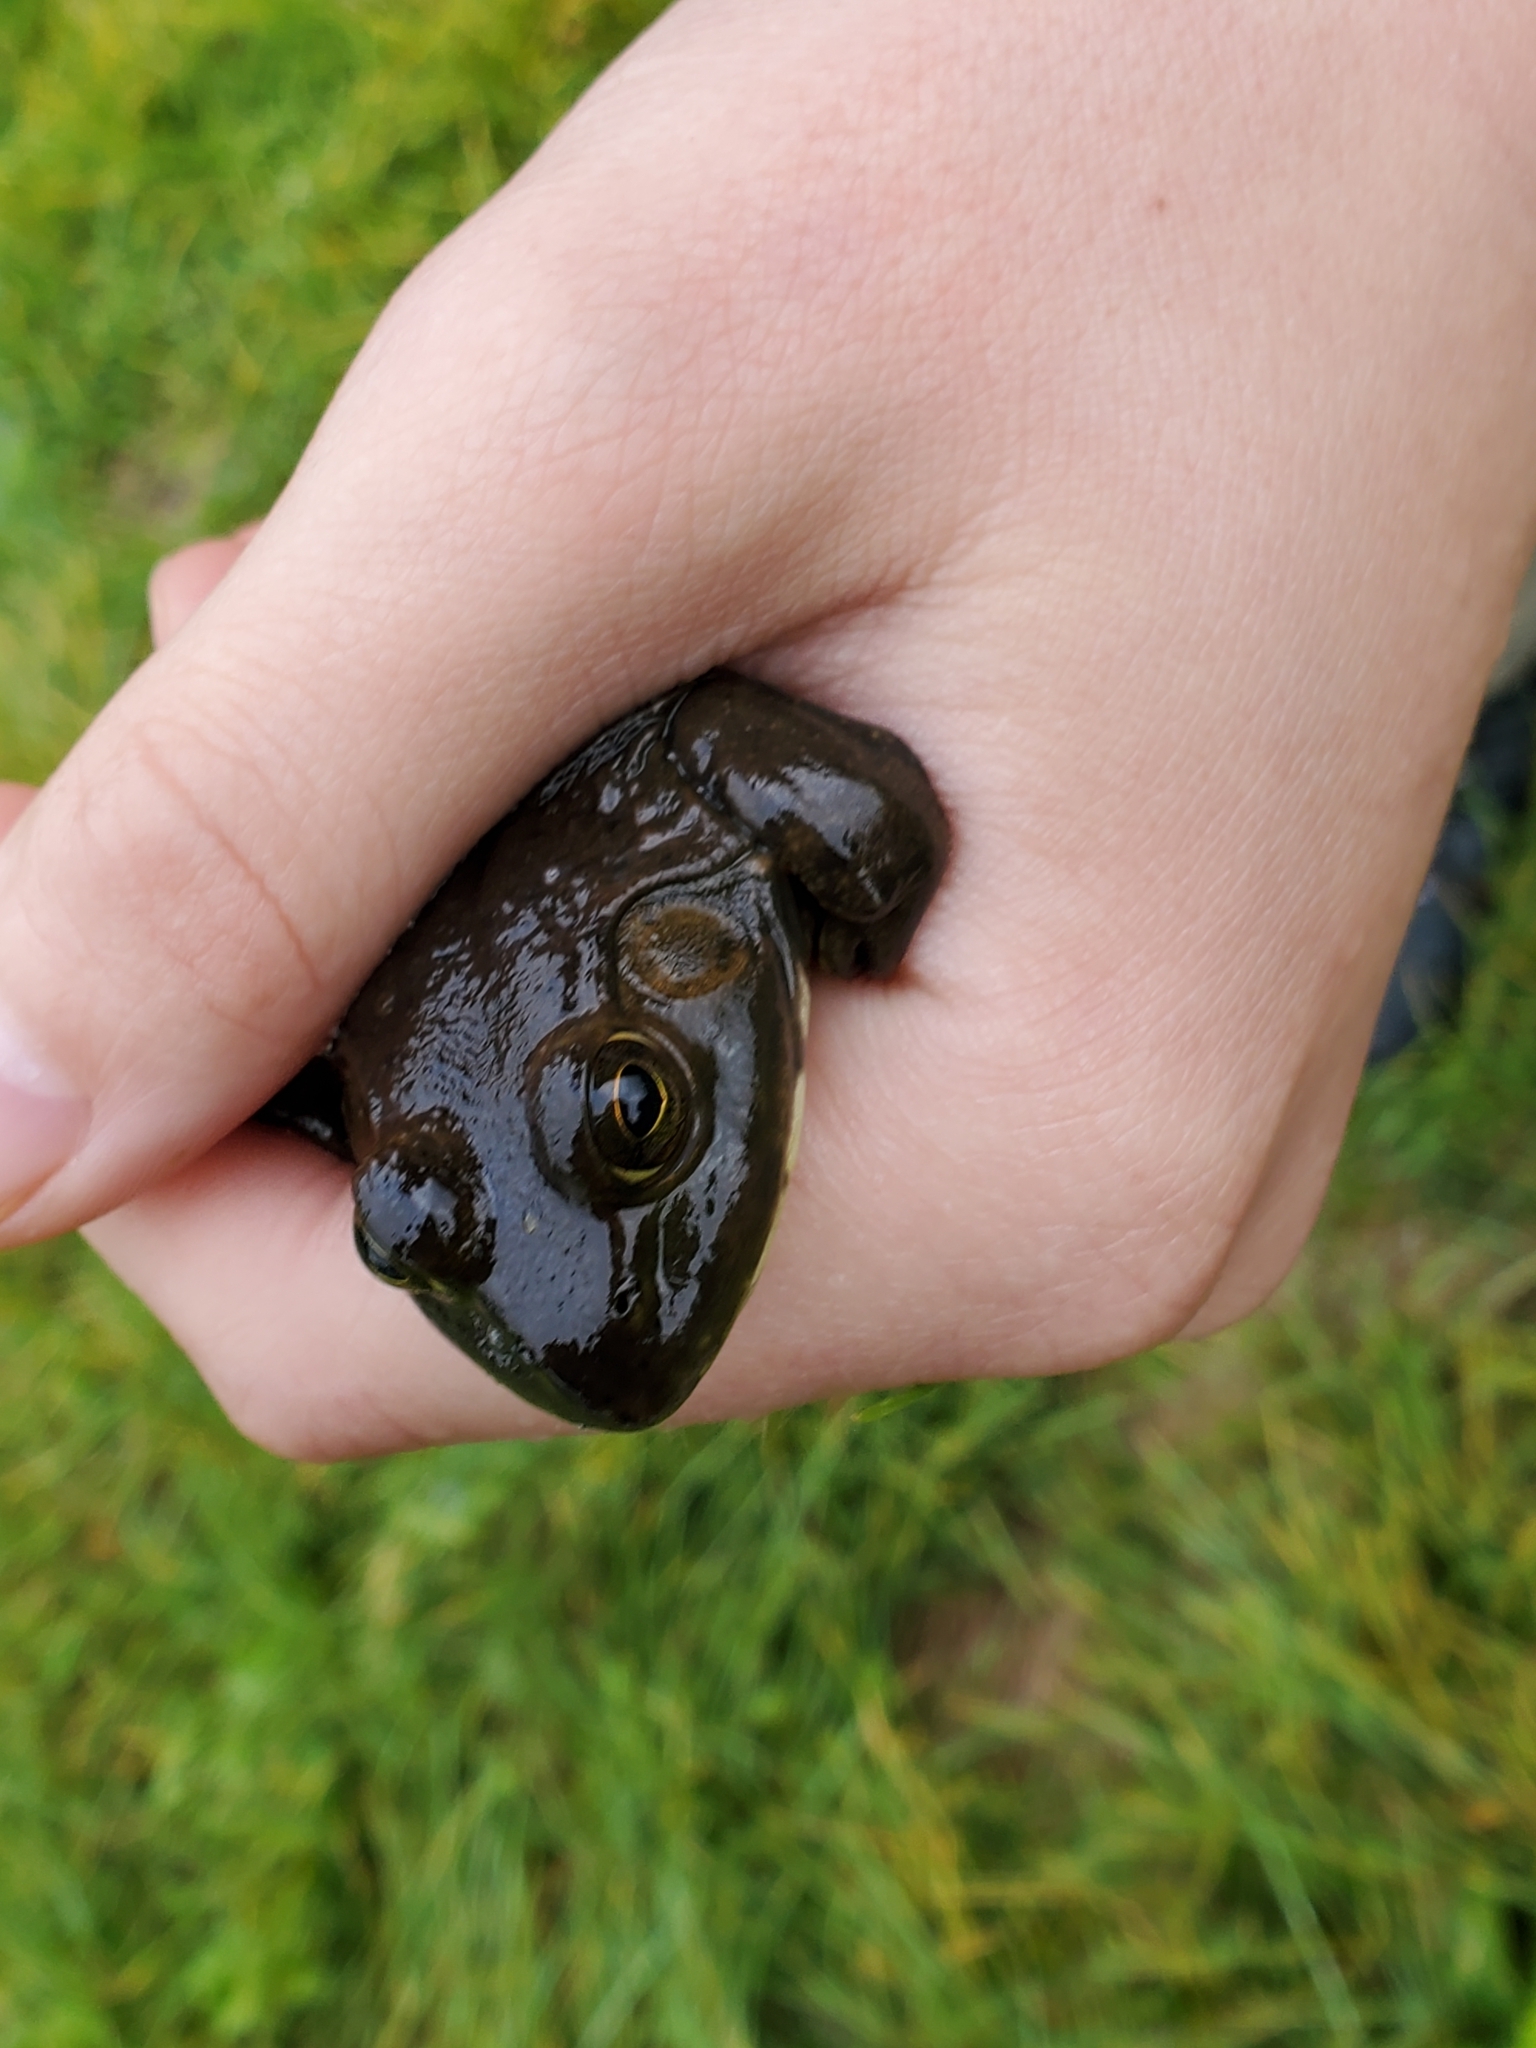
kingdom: Animalia
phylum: Chordata
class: Amphibia
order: Anura
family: Ranidae
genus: Lithobates
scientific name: Lithobates catesbeianus
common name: American bullfrog
